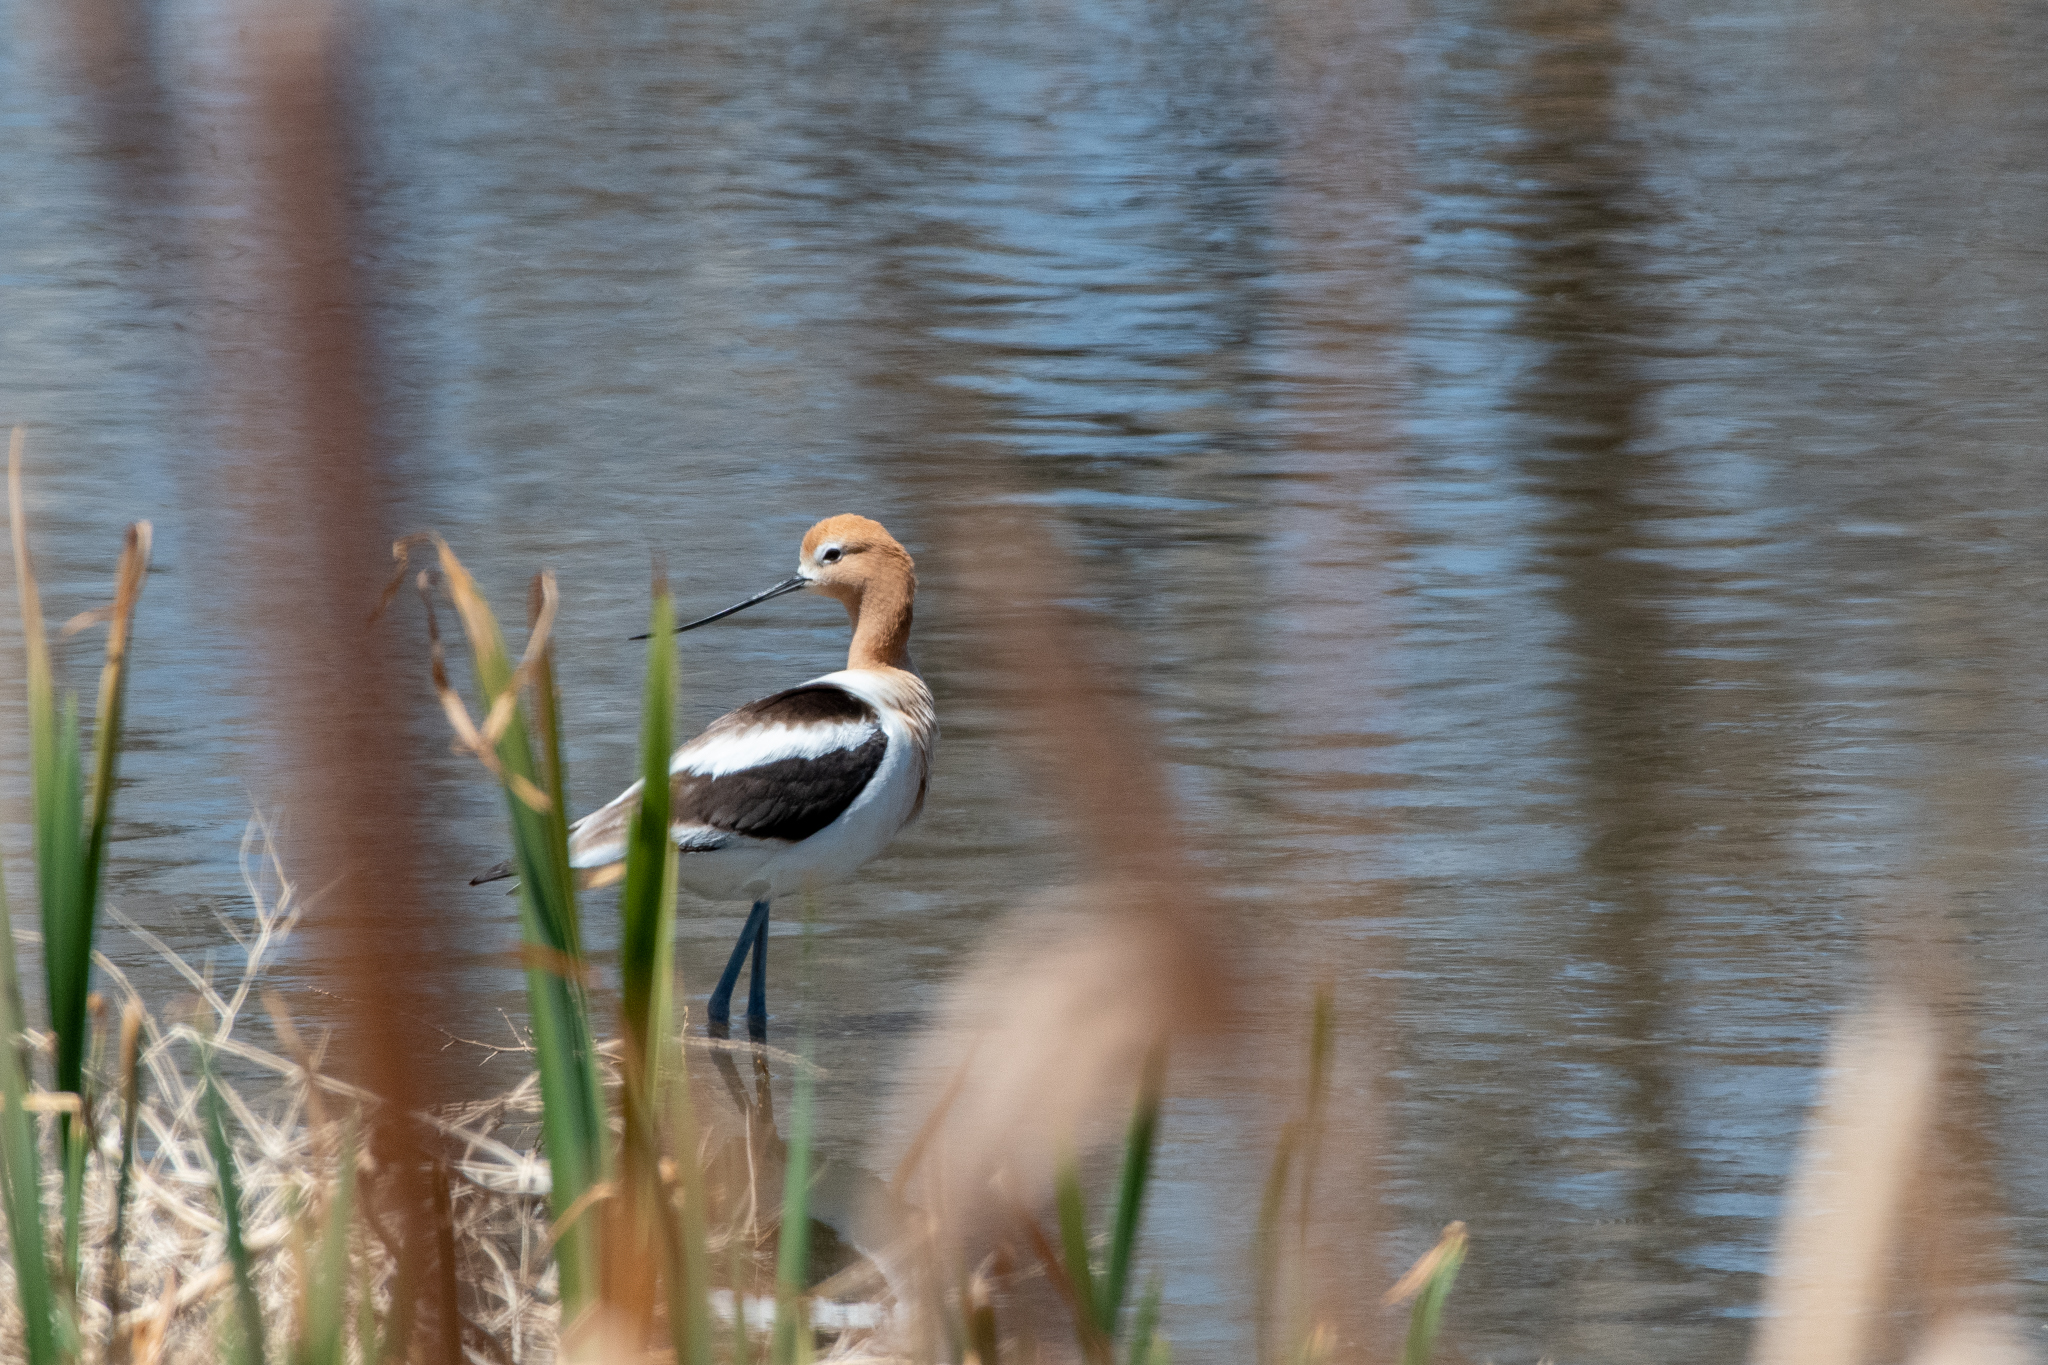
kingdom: Animalia
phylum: Chordata
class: Aves
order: Charadriiformes
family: Recurvirostridae
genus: Recurvirostra
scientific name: Recurvirostra americana
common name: American avocet
